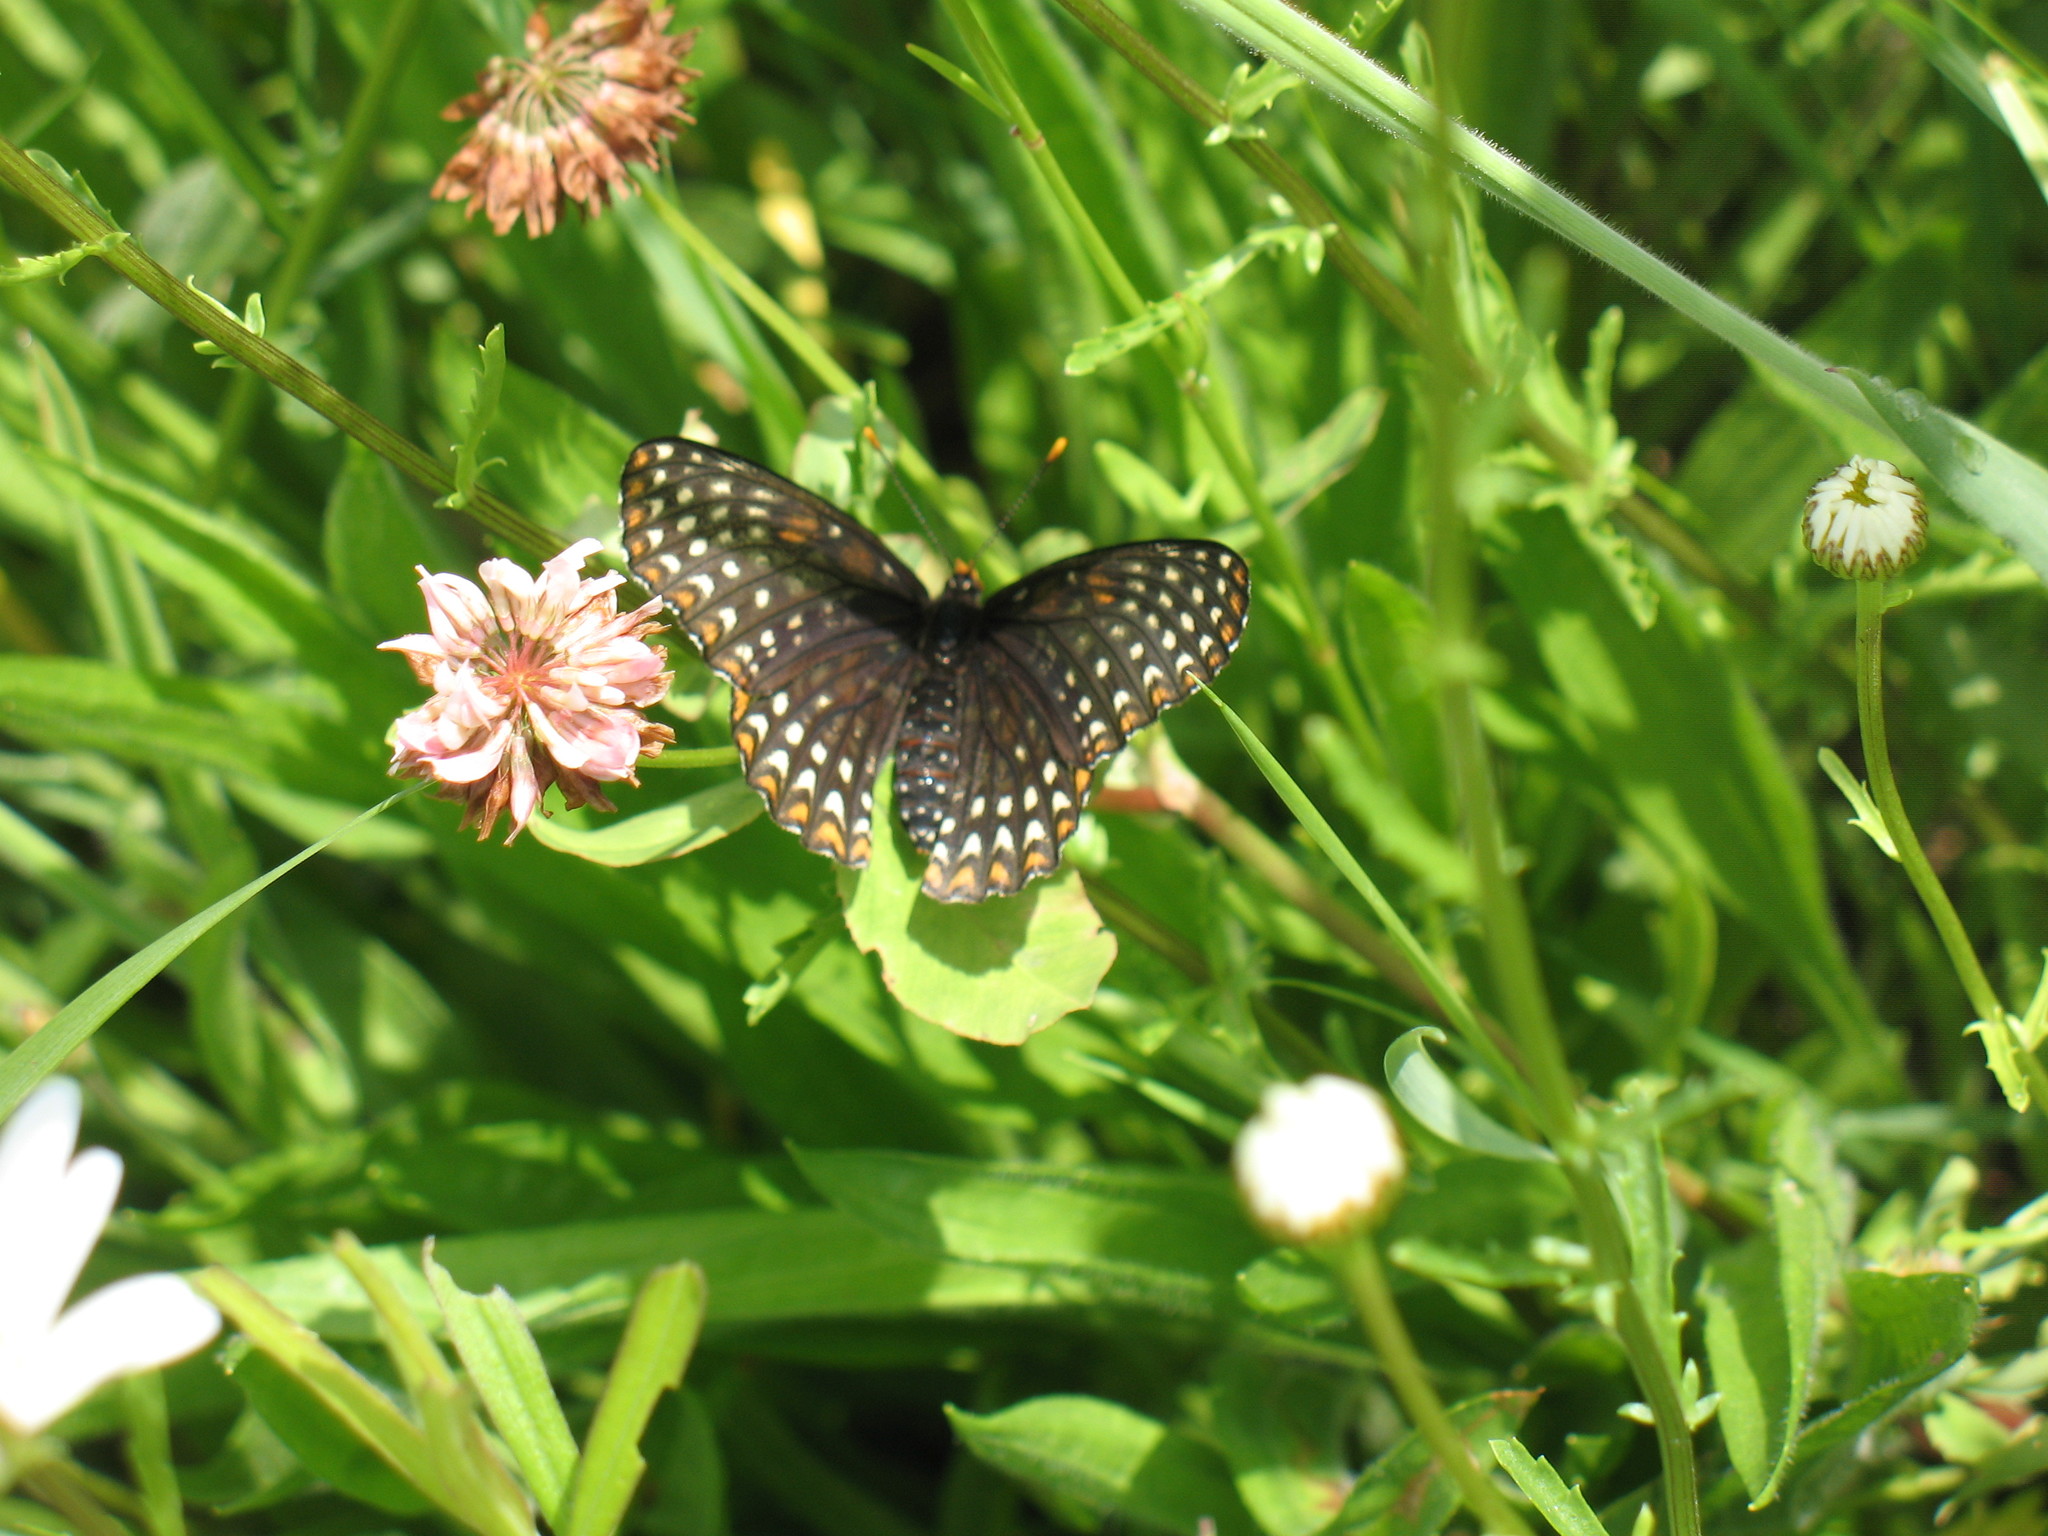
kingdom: Animalia
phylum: Arthropoda
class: Insecta
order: Lepidoptera
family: Nymphalidae
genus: Euphydryas
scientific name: Euphydryas phaeton
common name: Baltimore checkerspot
